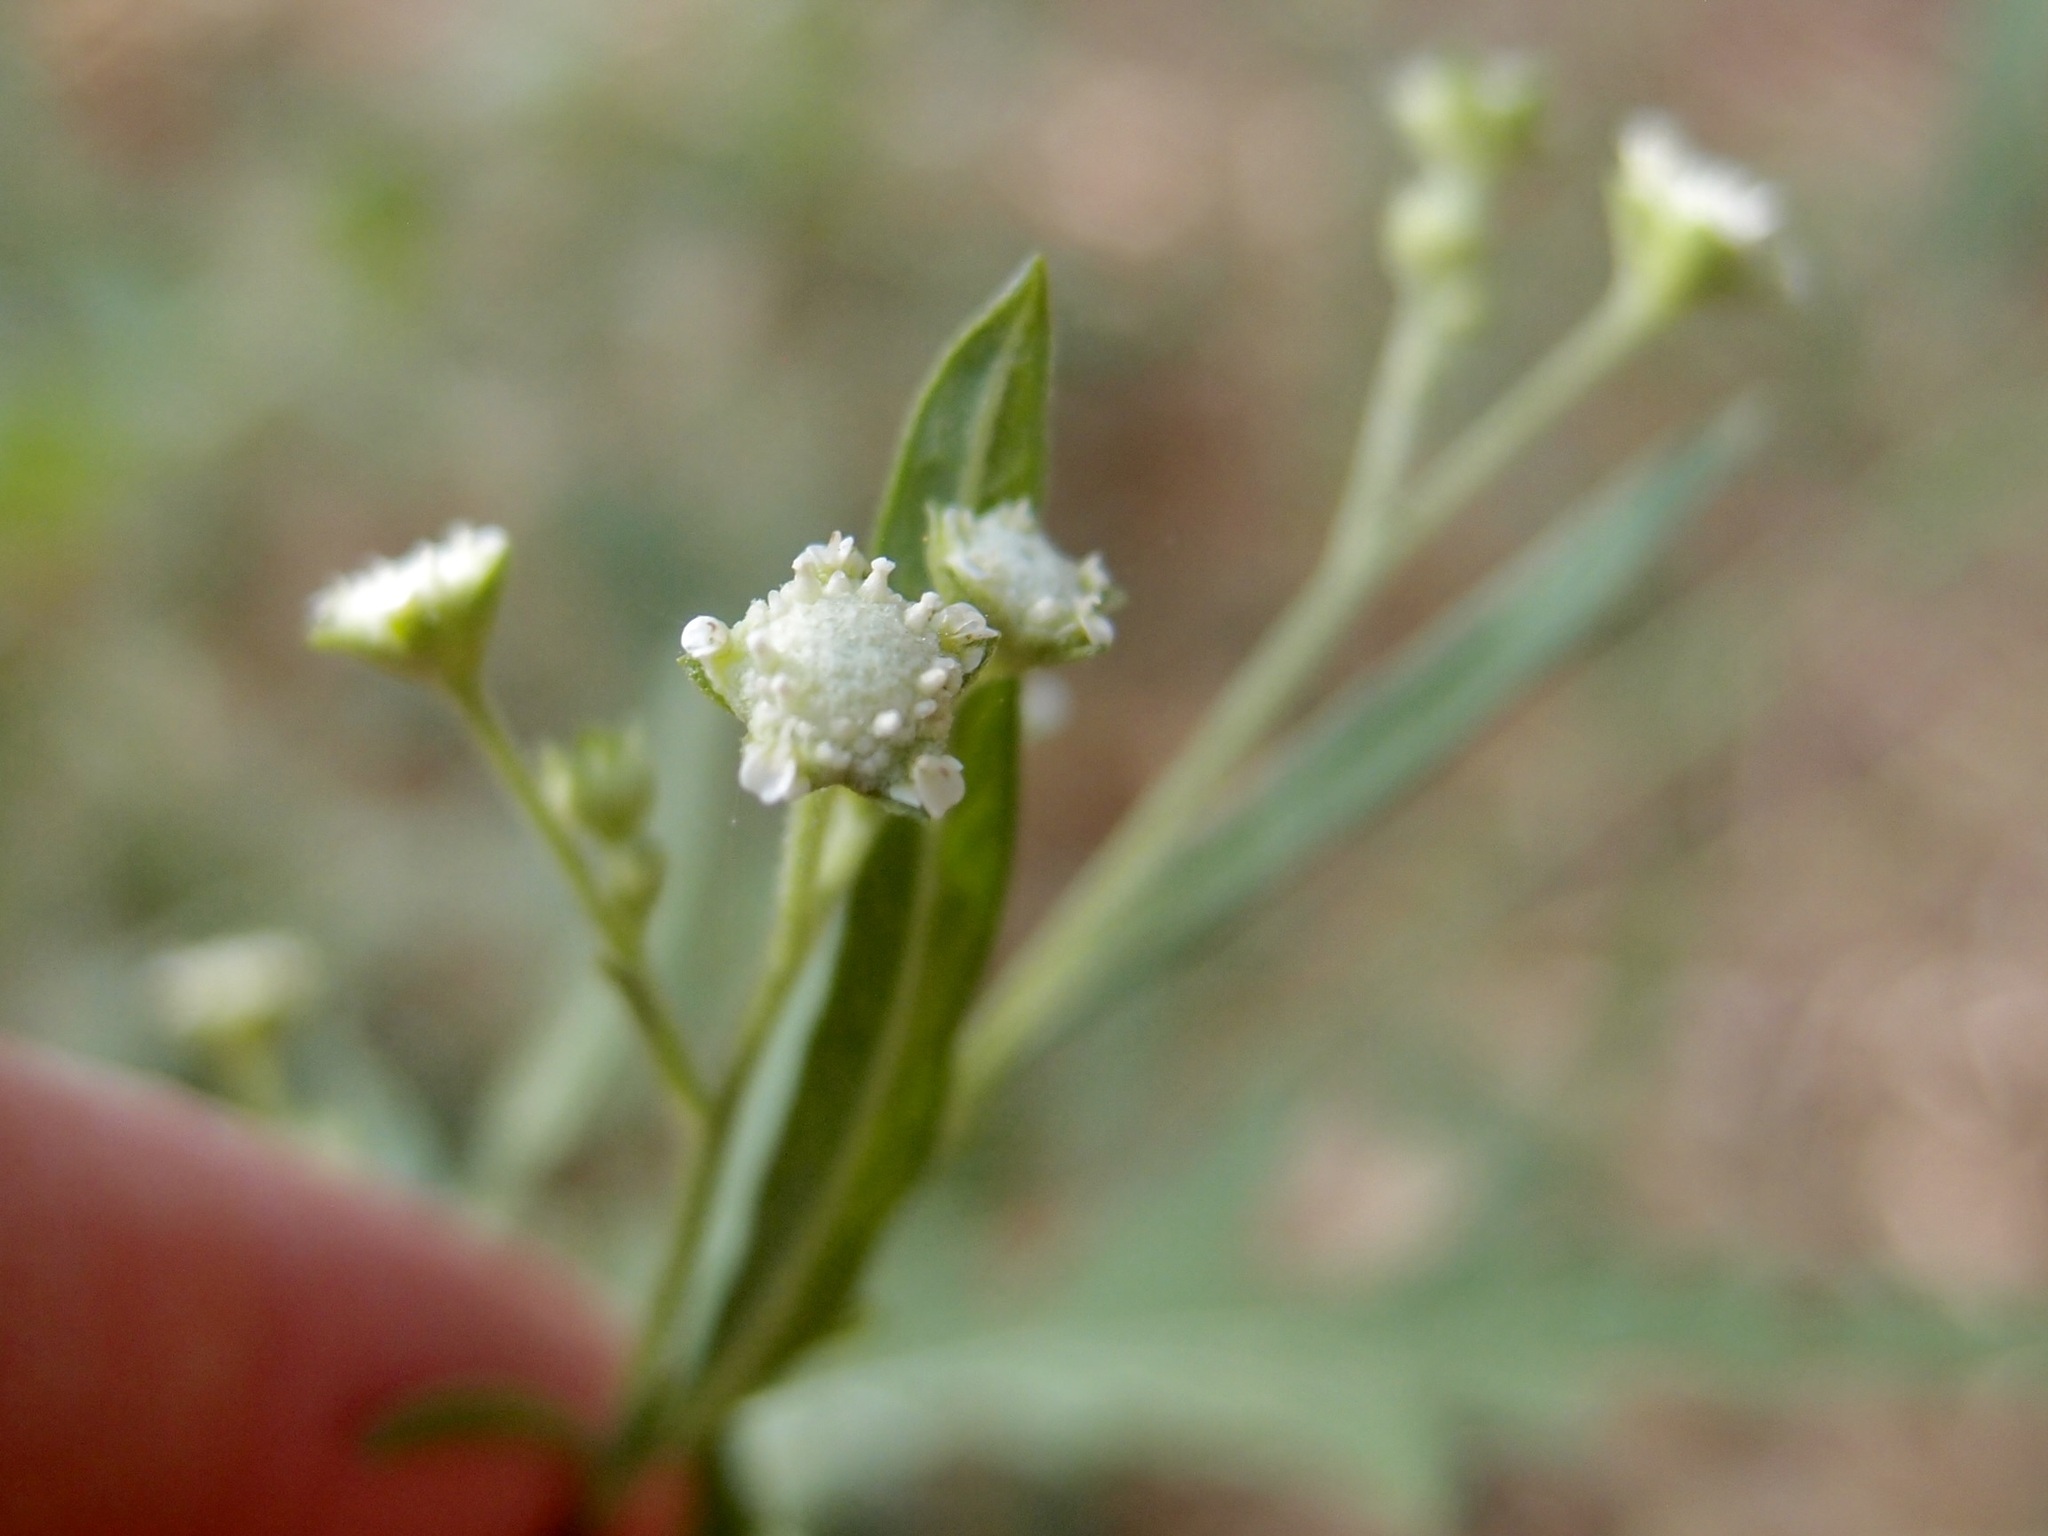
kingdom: Plantae
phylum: Tracheophyta
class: Magnoliopsida
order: Asterales
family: Asteraceae
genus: Parthenium
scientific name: Parthenium hysterophorus
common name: Santa maria feverfew
